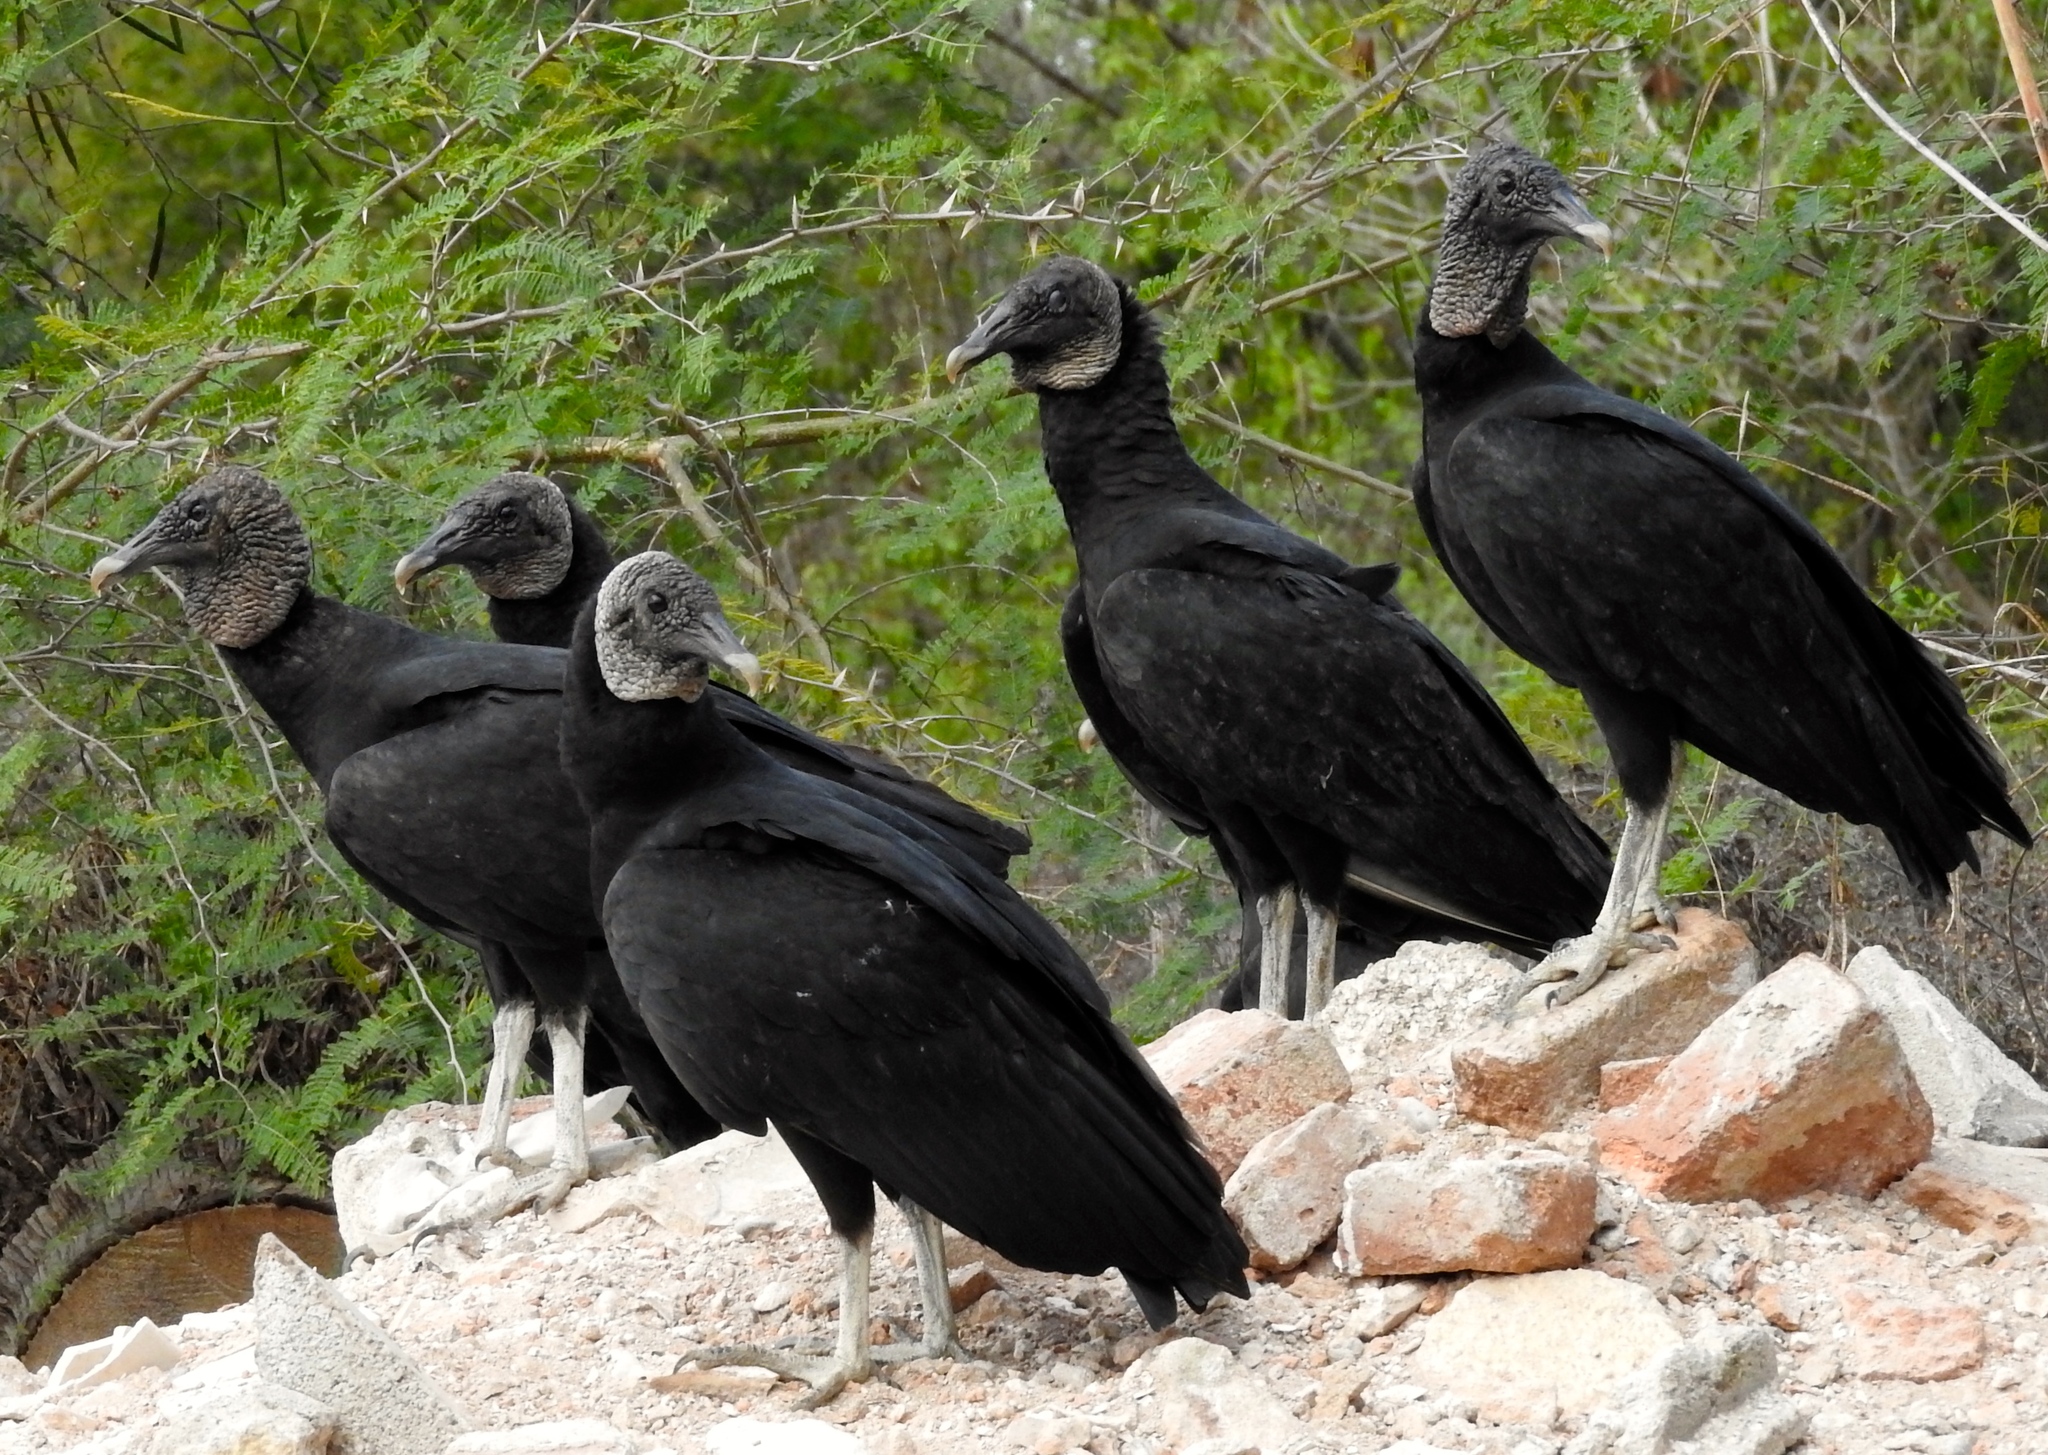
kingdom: Animalia
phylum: Chordata
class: Aves
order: Accipitriformes
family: Cathartidae
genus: Coragyps
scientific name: Coragyps atratus
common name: Black vulture
